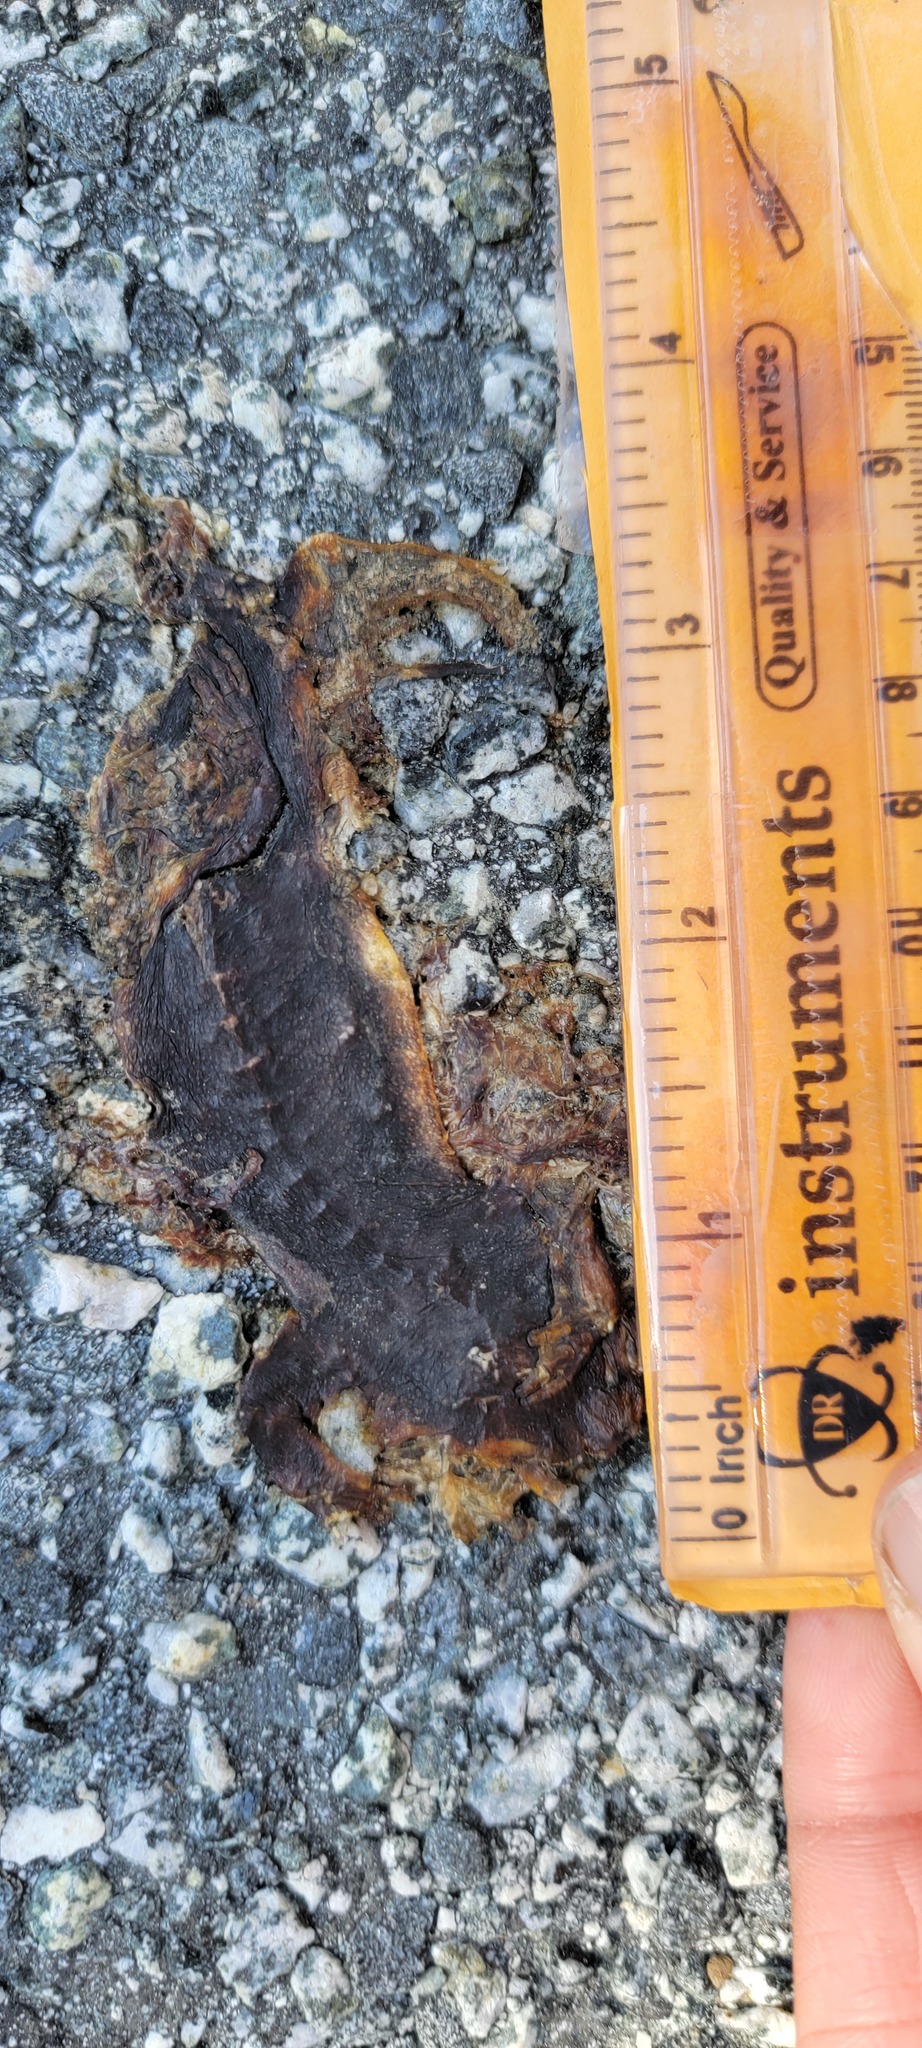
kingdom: Animalia
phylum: Chordata
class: Amphibia
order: Caudata
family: Salamandridae
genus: Taricha
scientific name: Taricha
